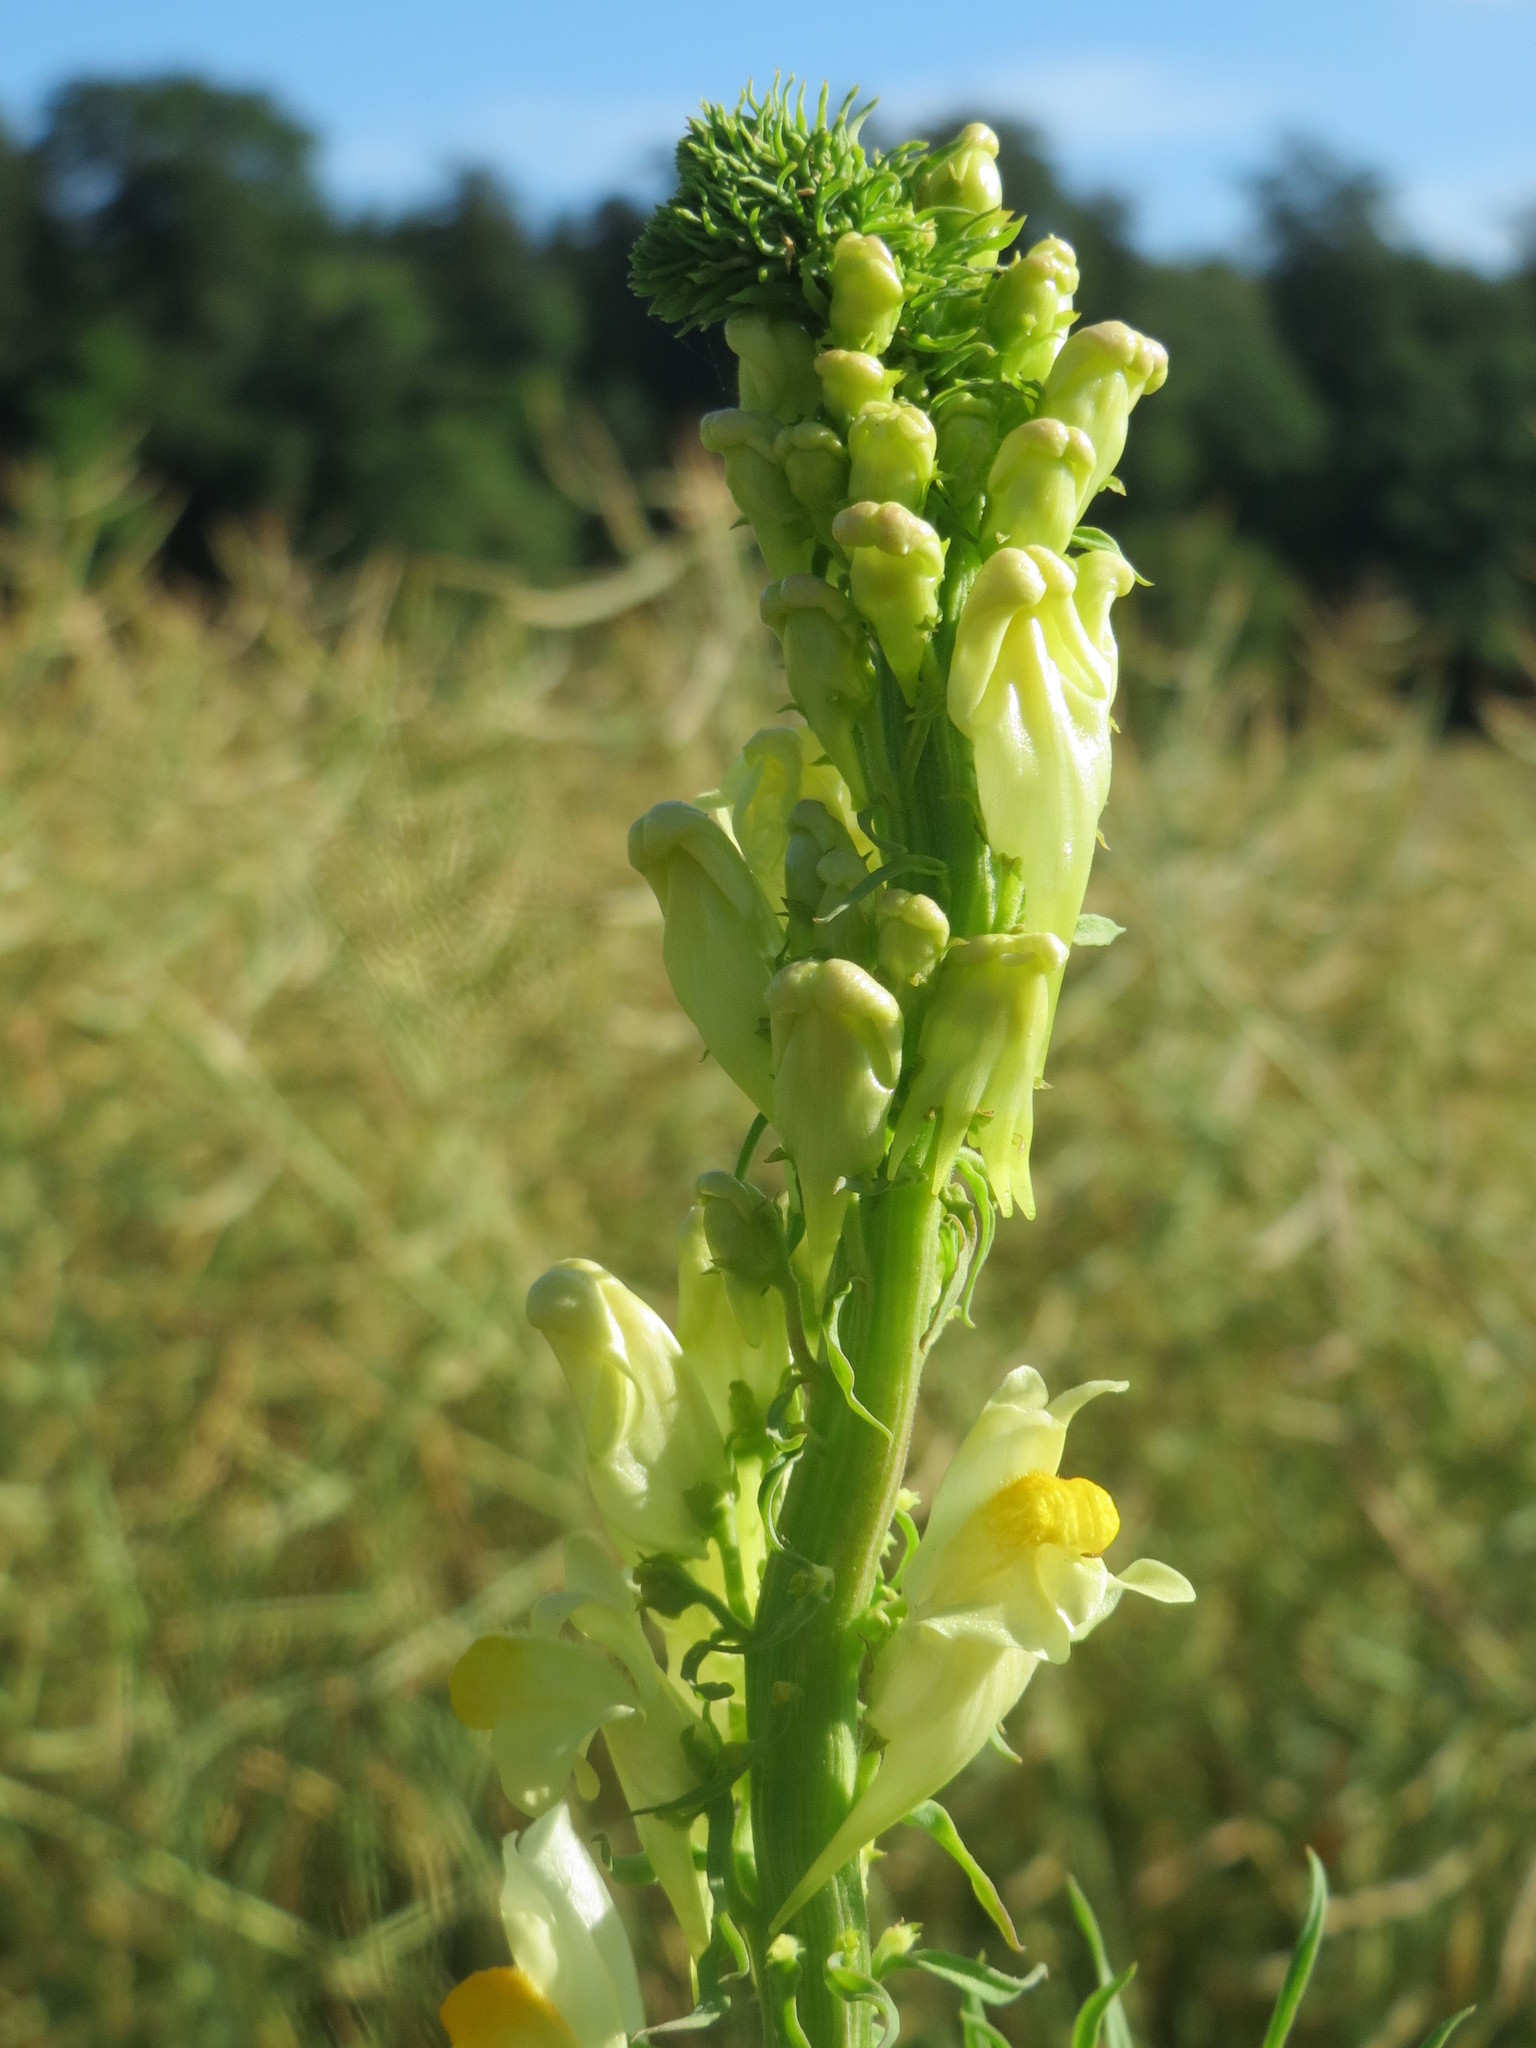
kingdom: Plantae
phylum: Tracheophyta
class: Magnoliopsida
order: Lamiales
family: Plantaginaceae
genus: Linaria
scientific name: Linaria vulgaris
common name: Butter and eggs
